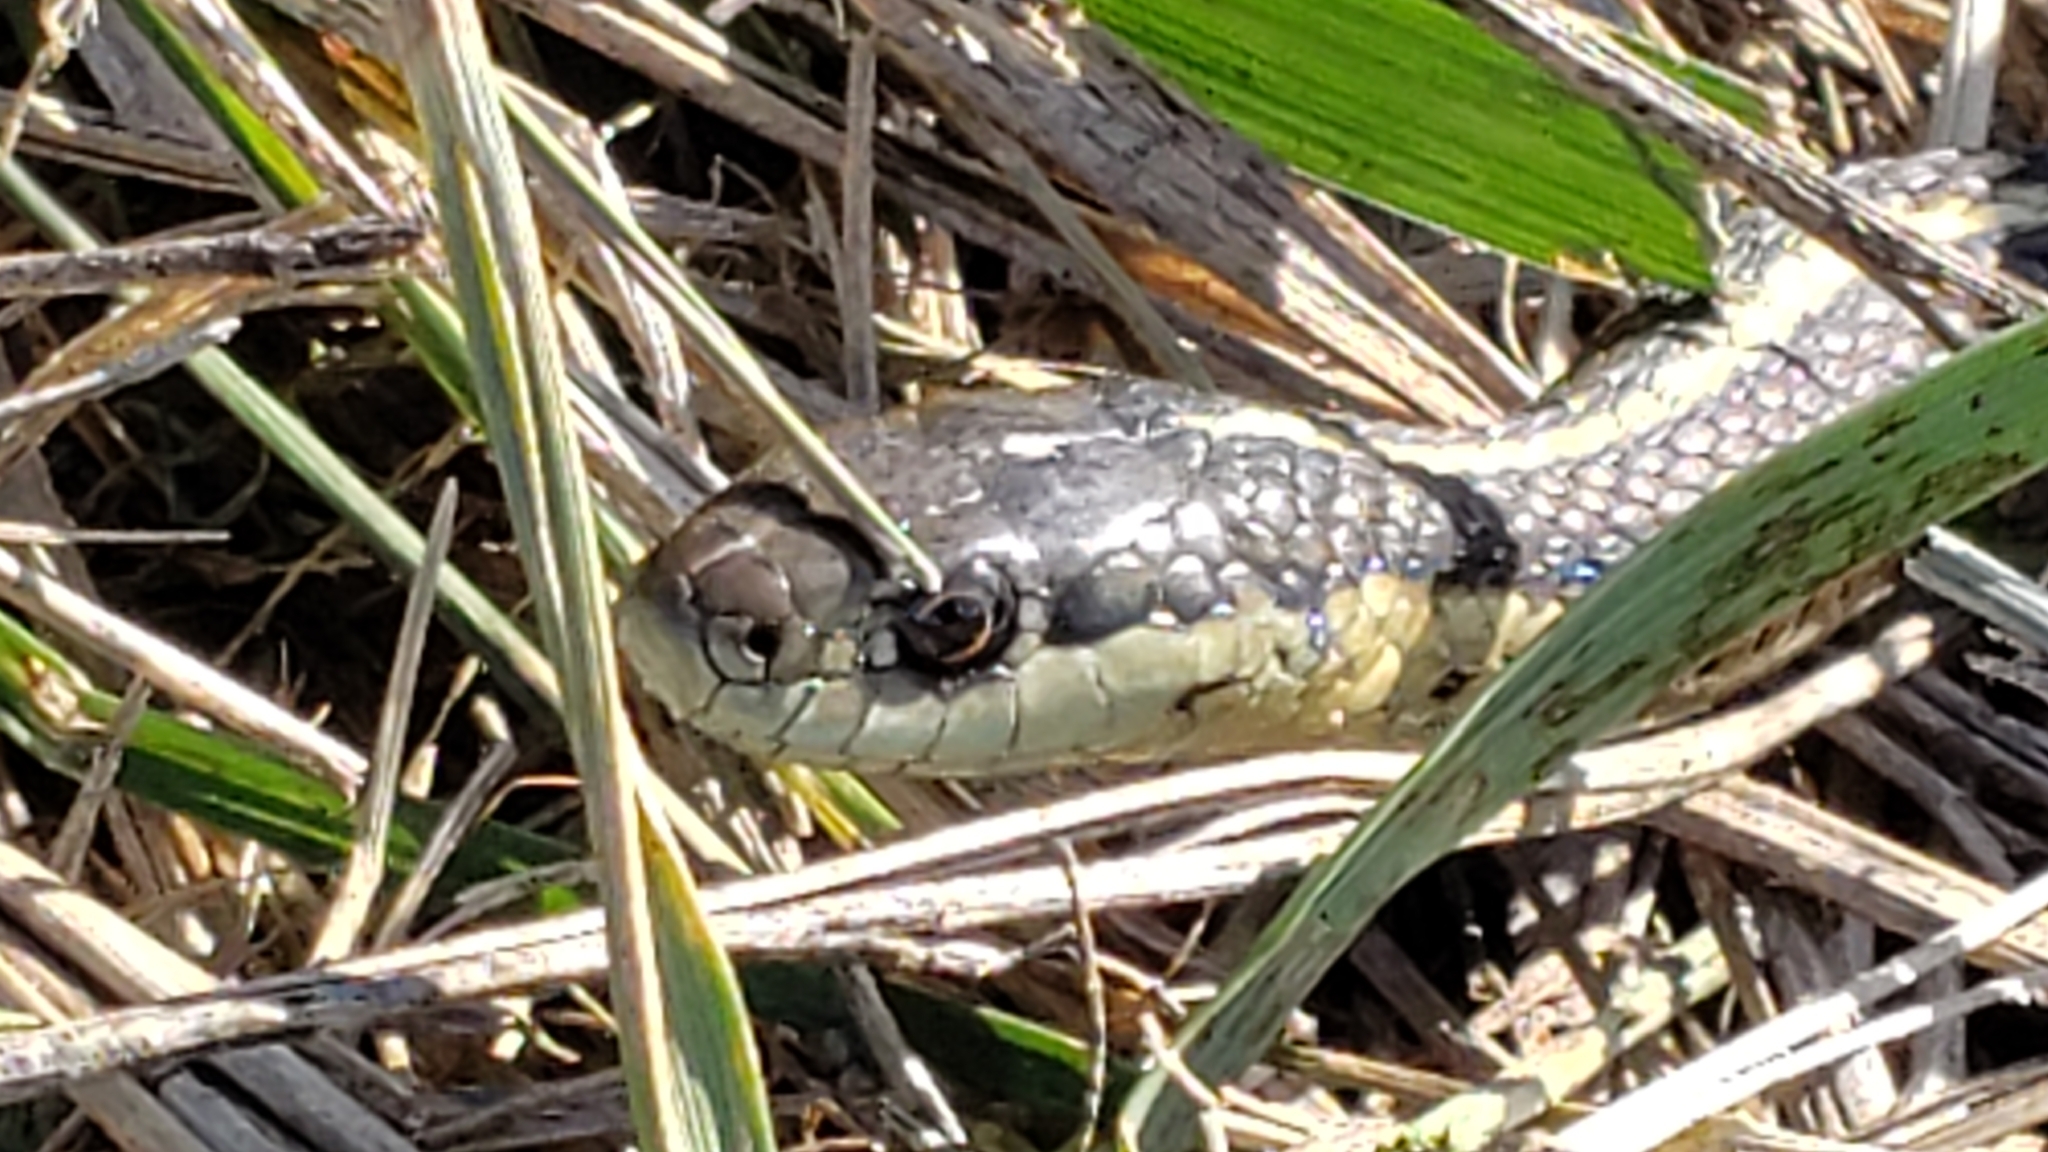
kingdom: Animalia
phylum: Chordata
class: Squamata
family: Colubridae
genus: Thamnophis
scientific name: Thamnophis ordinoides
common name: Northwestern garter snake
